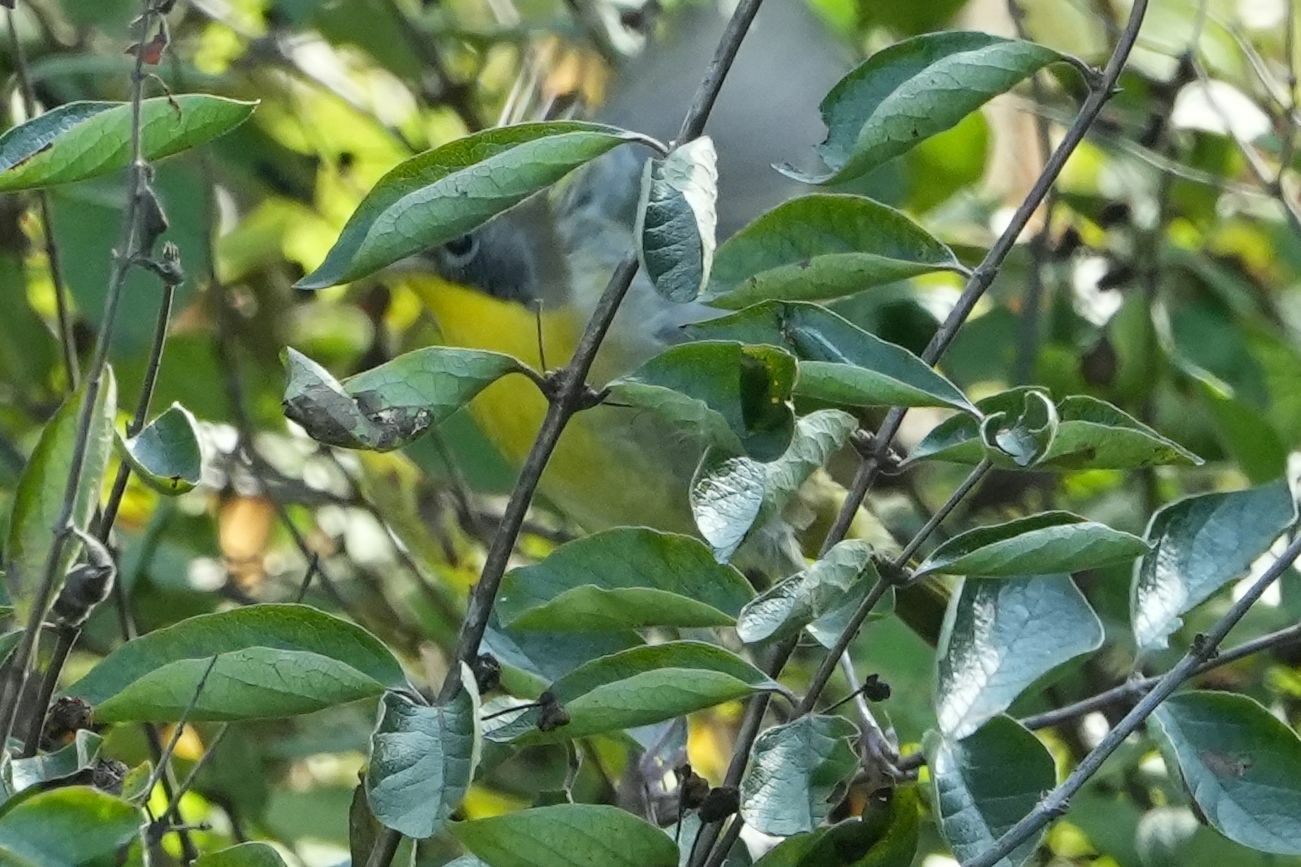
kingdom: Animalia
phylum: Chordata
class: Aves
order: Passeriformes
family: Parulidae
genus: Geothlypis
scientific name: Geothlypis trichas
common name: Common yellowthroat
